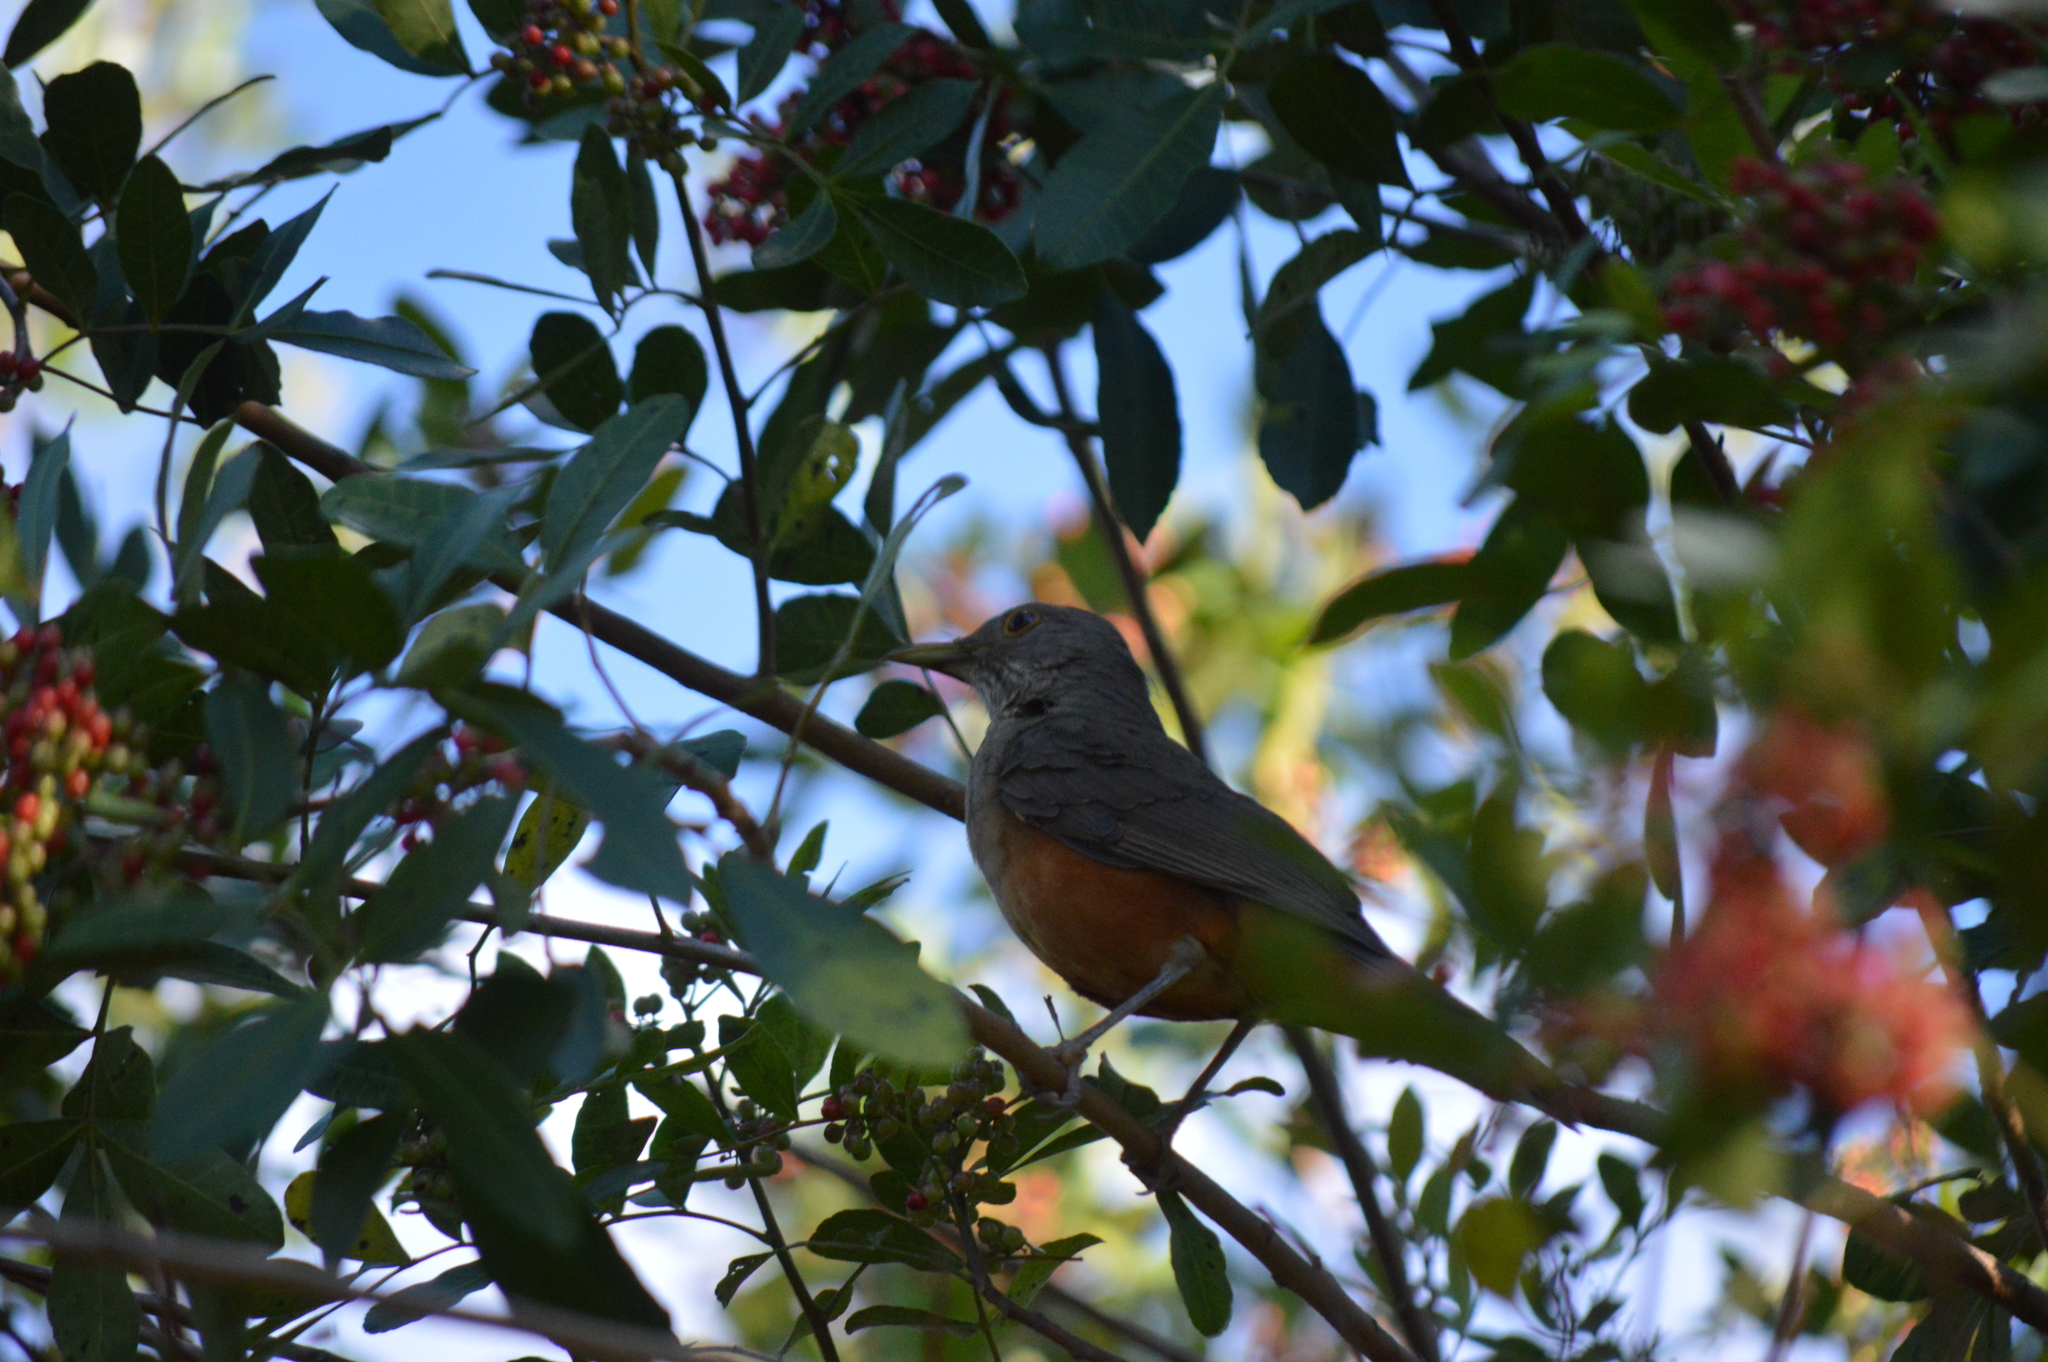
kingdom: Animalia
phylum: Chordata
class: Aves
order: Passeriformes
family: Turdidae
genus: Turdus
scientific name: Turdus rufiventris
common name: Rufous-bellied thrush
